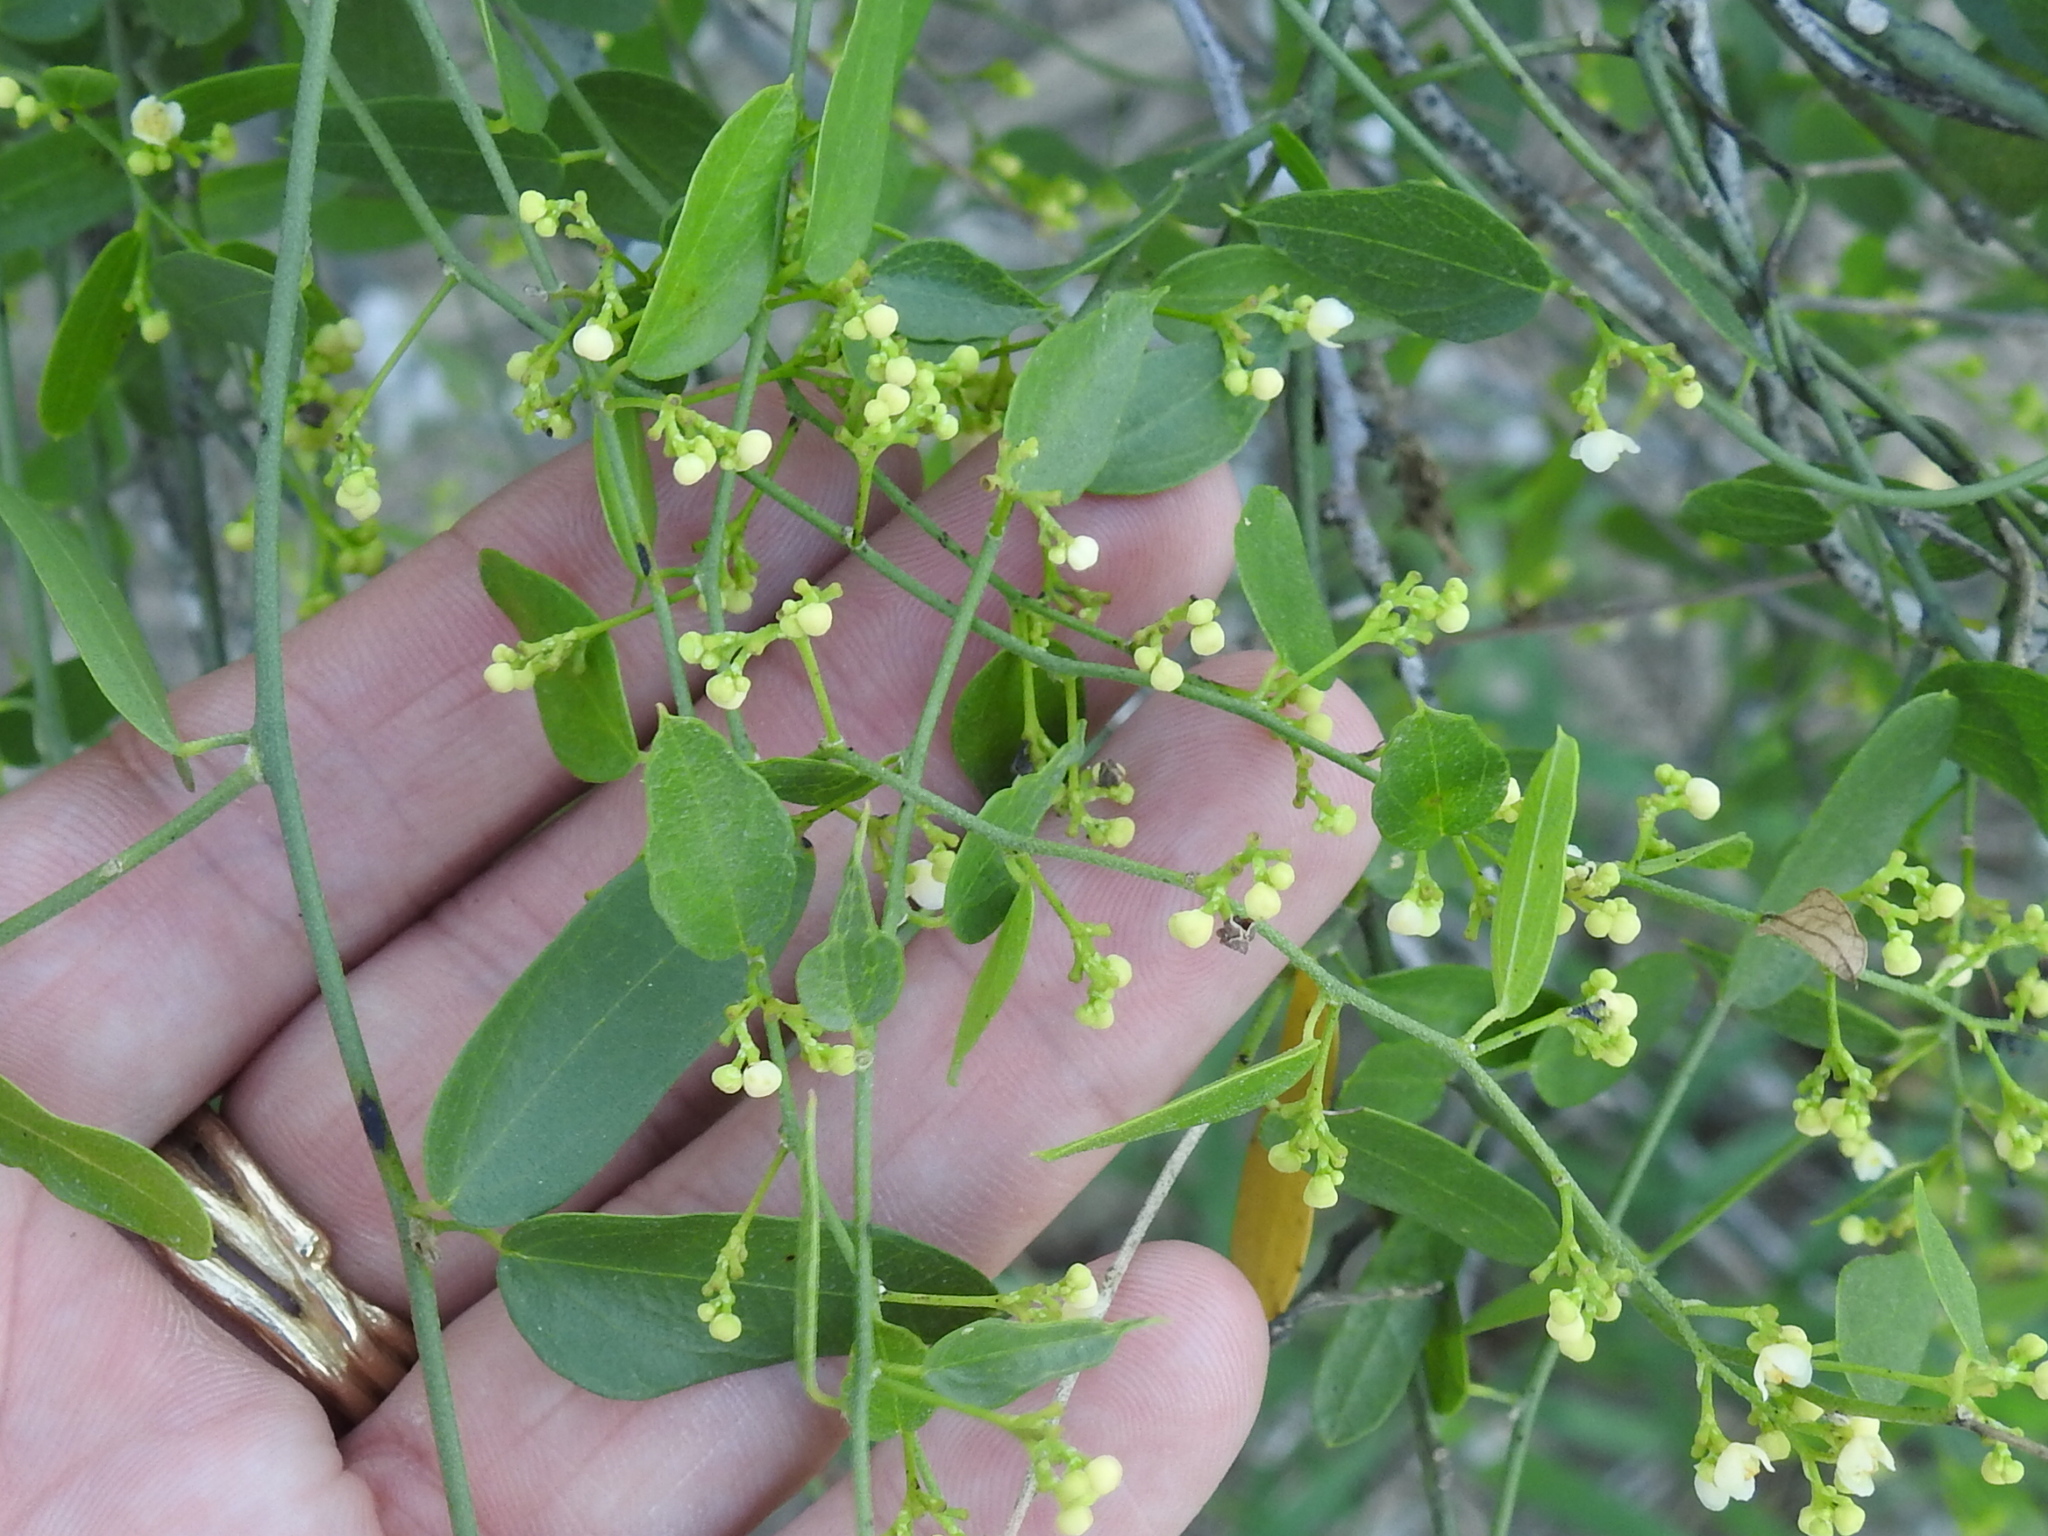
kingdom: Plantae
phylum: Tracheophyta
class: Magnoliopsida
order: Ranunculales
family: Menispermaceae
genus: Cocculus
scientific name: Cocculus diversifolius
